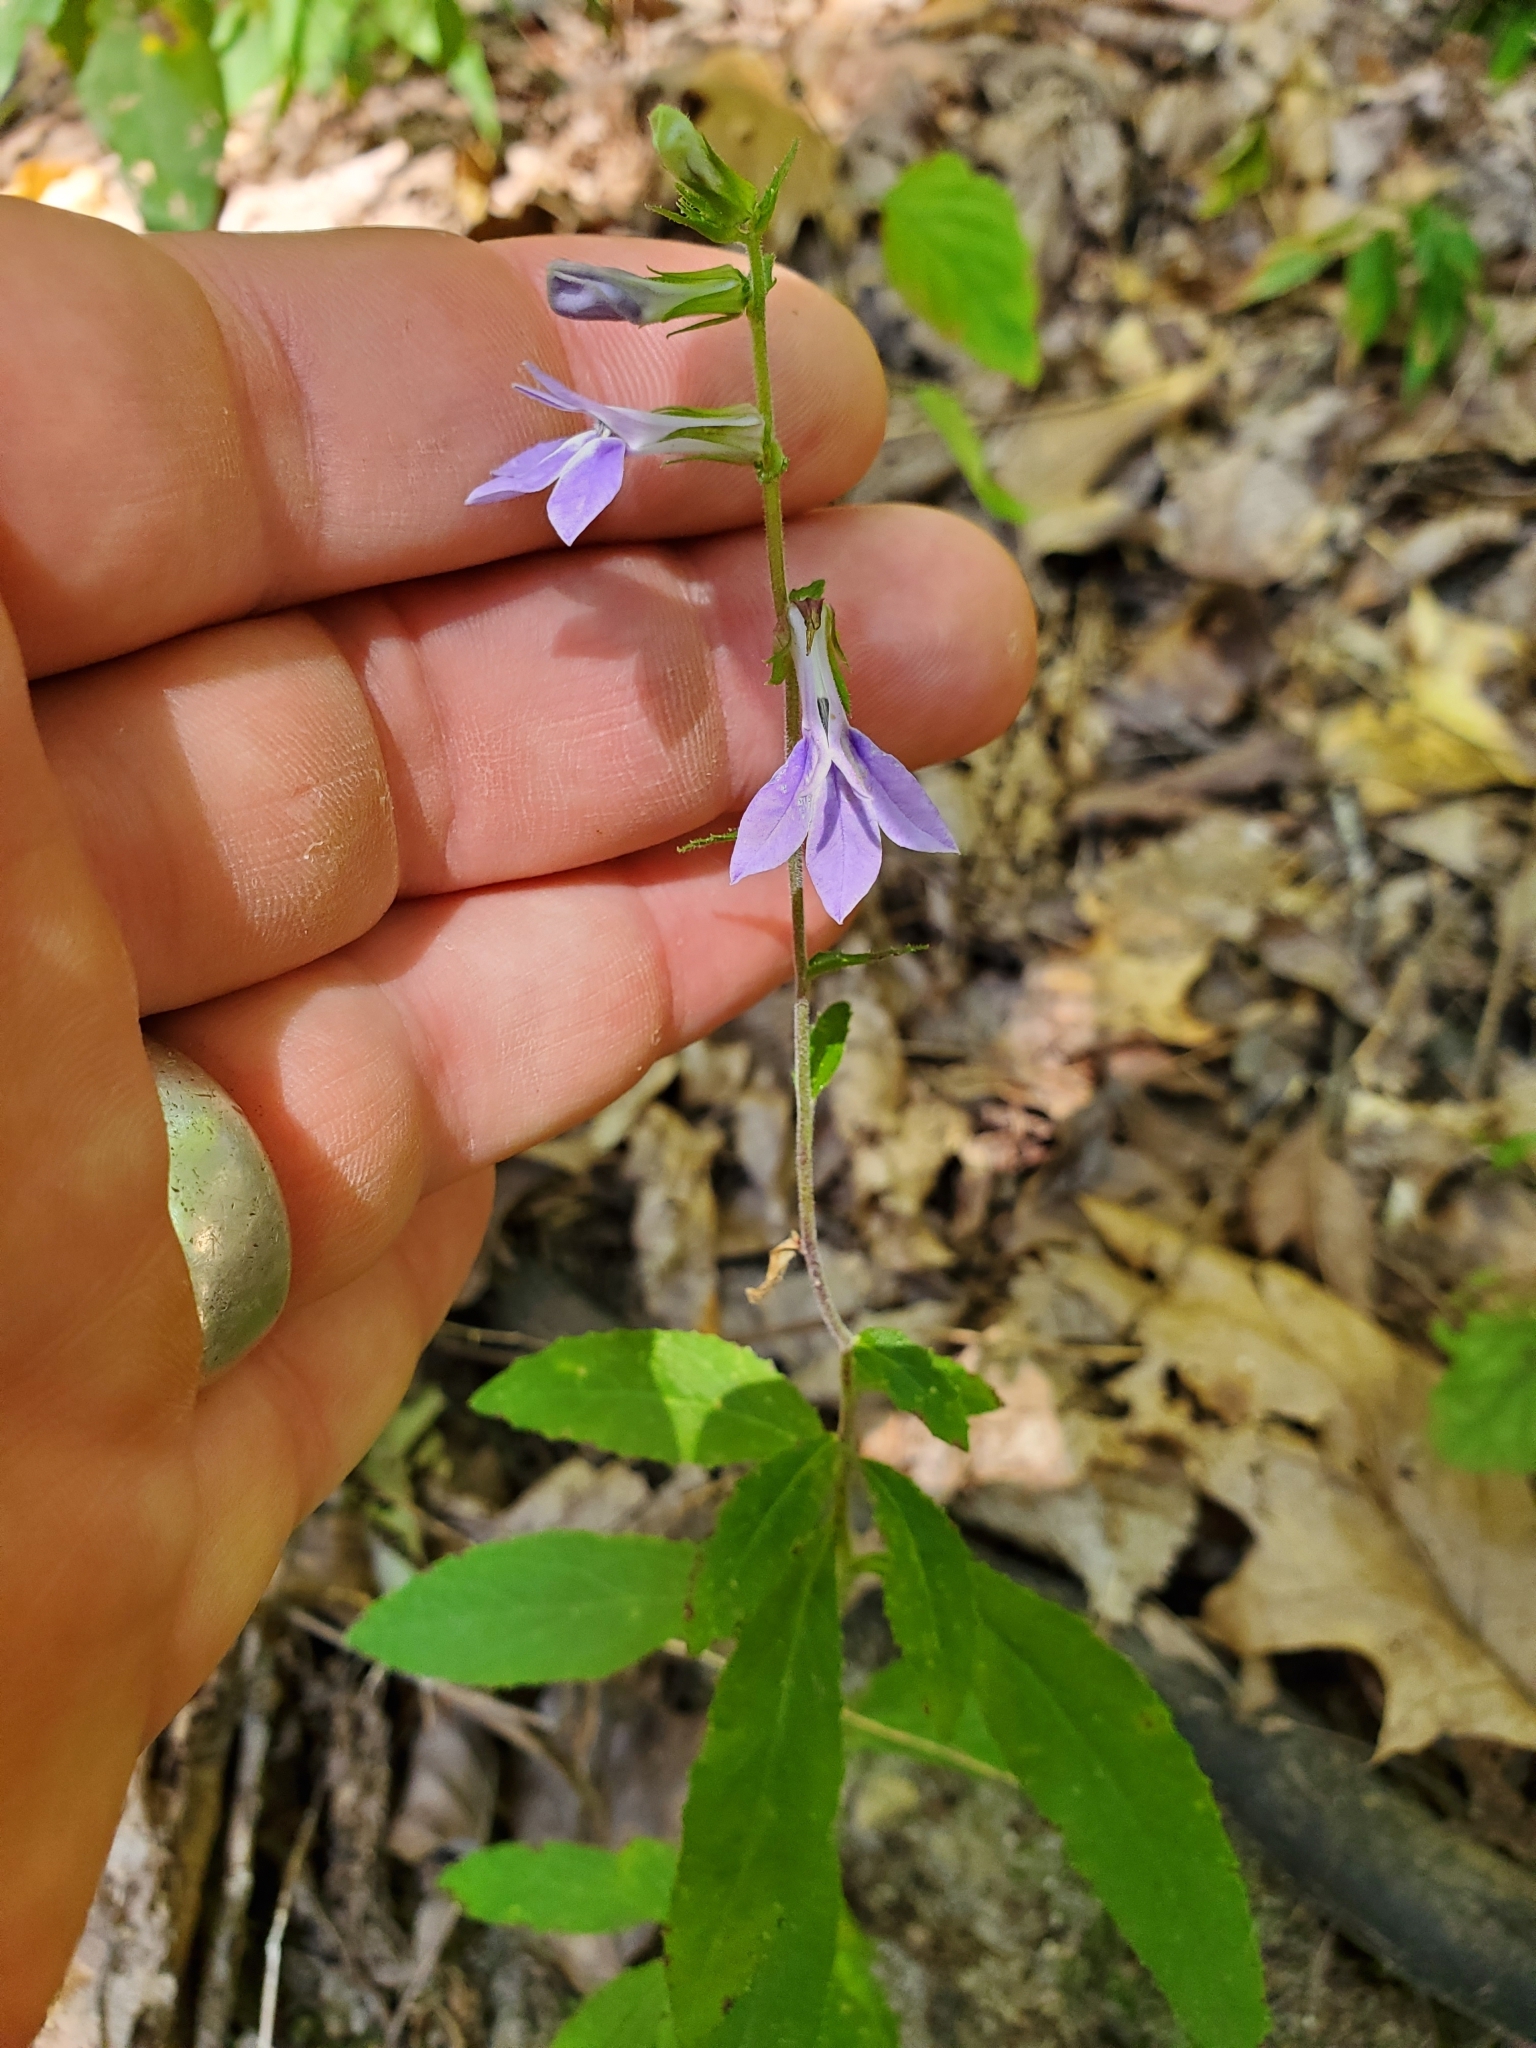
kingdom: Plantae
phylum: Tracheophyta
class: Magnoliopsida
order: Asterales
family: Campanulaceae
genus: Lobelia
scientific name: Lobelia puberula
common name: Purple dewdrop
